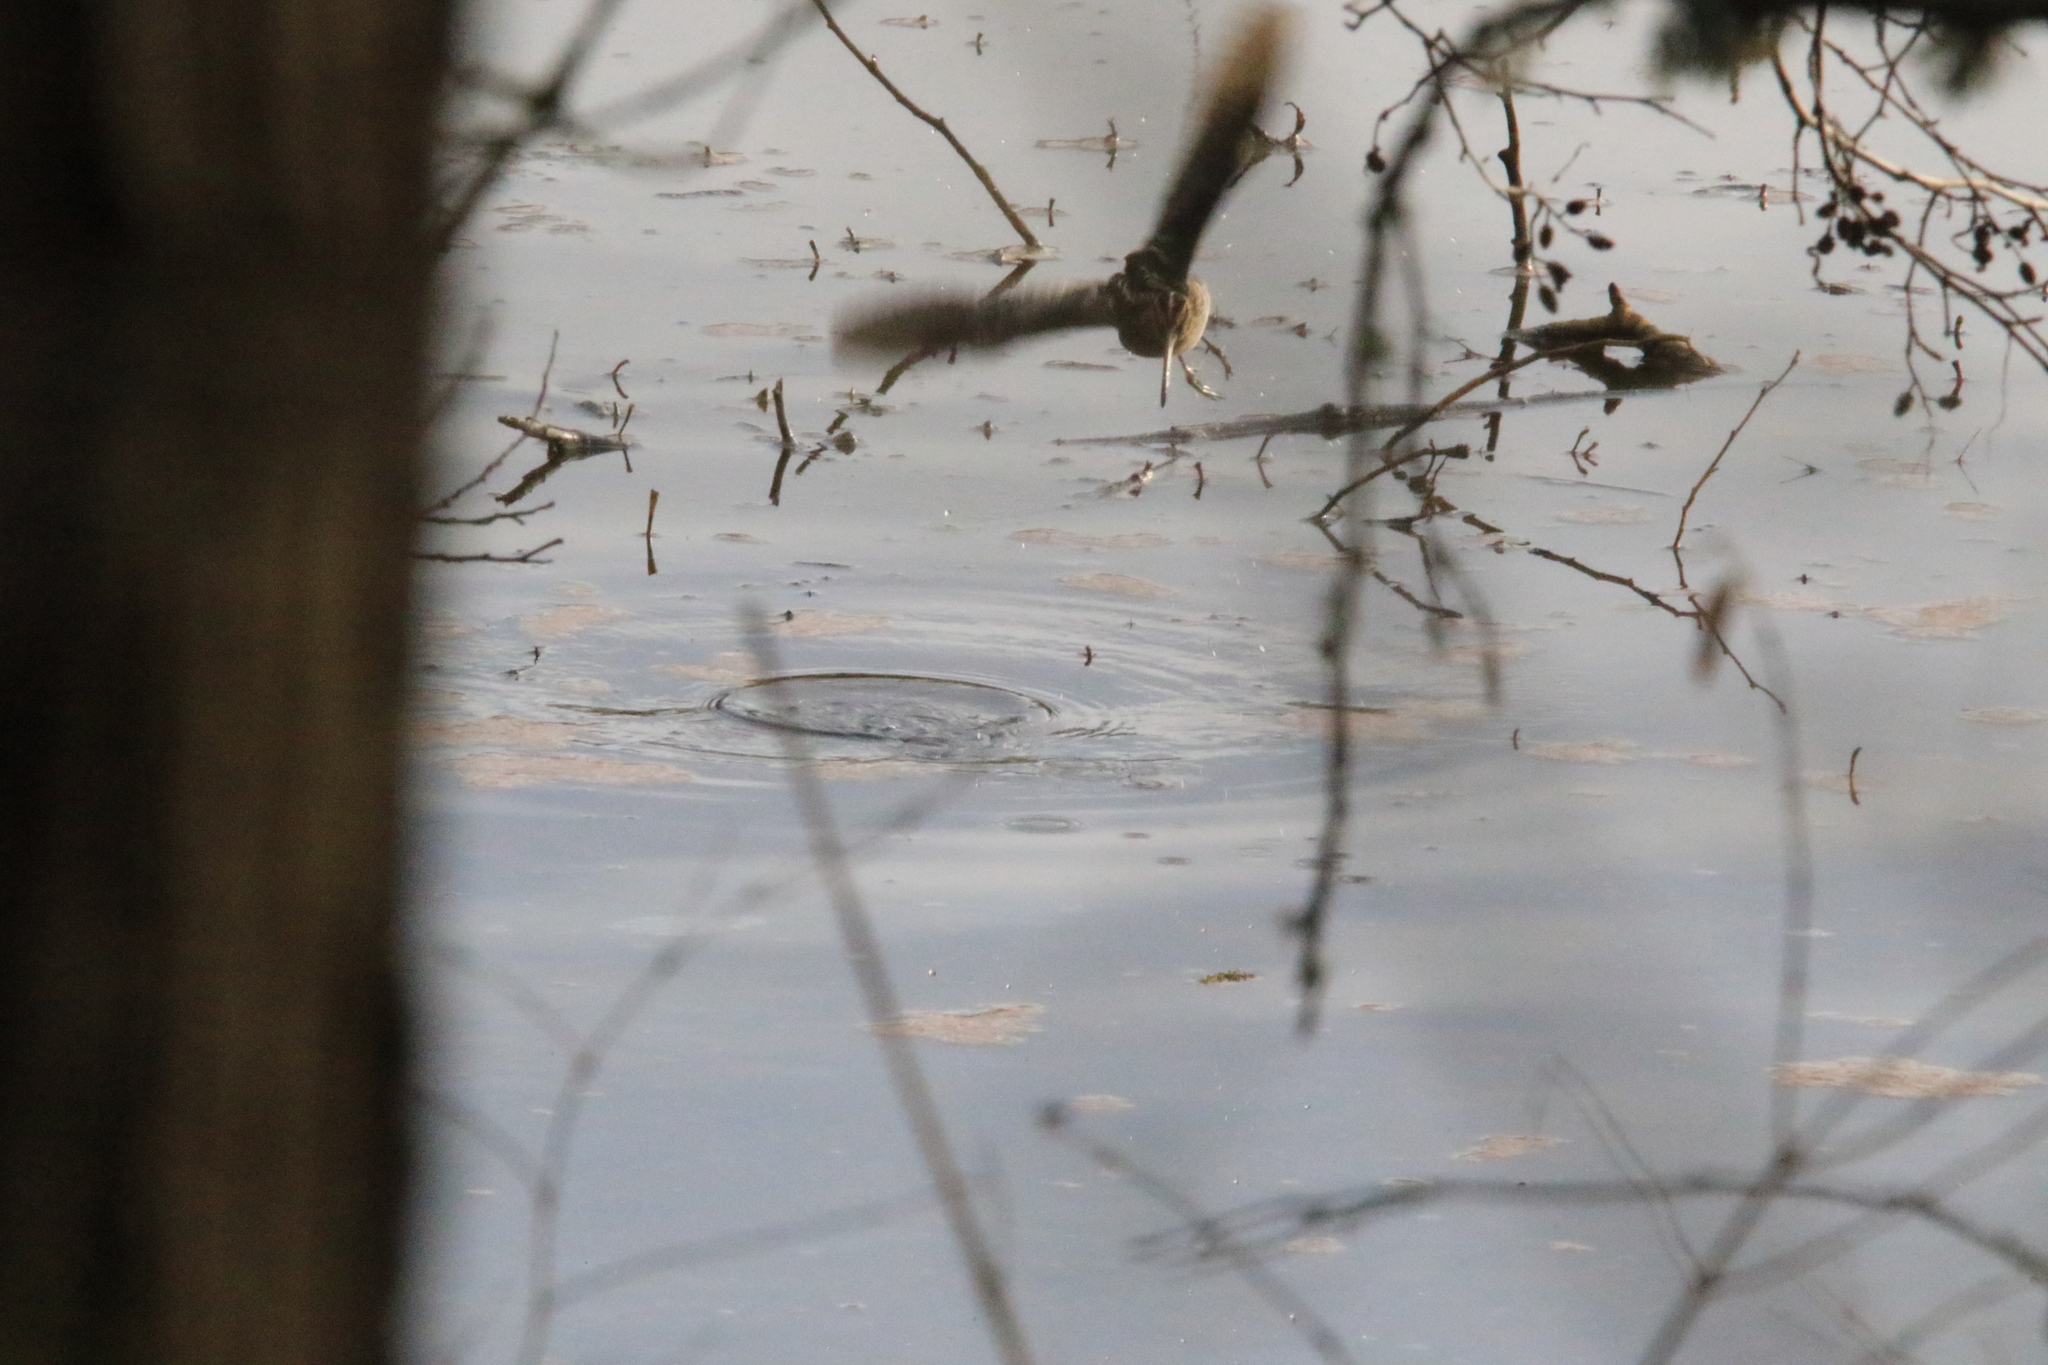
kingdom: Animalia
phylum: Chordata
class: Aves
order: Charadriiformes
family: Scolopacidae
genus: Gallinago
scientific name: Gallinago delicata
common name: Wilson's snipe
